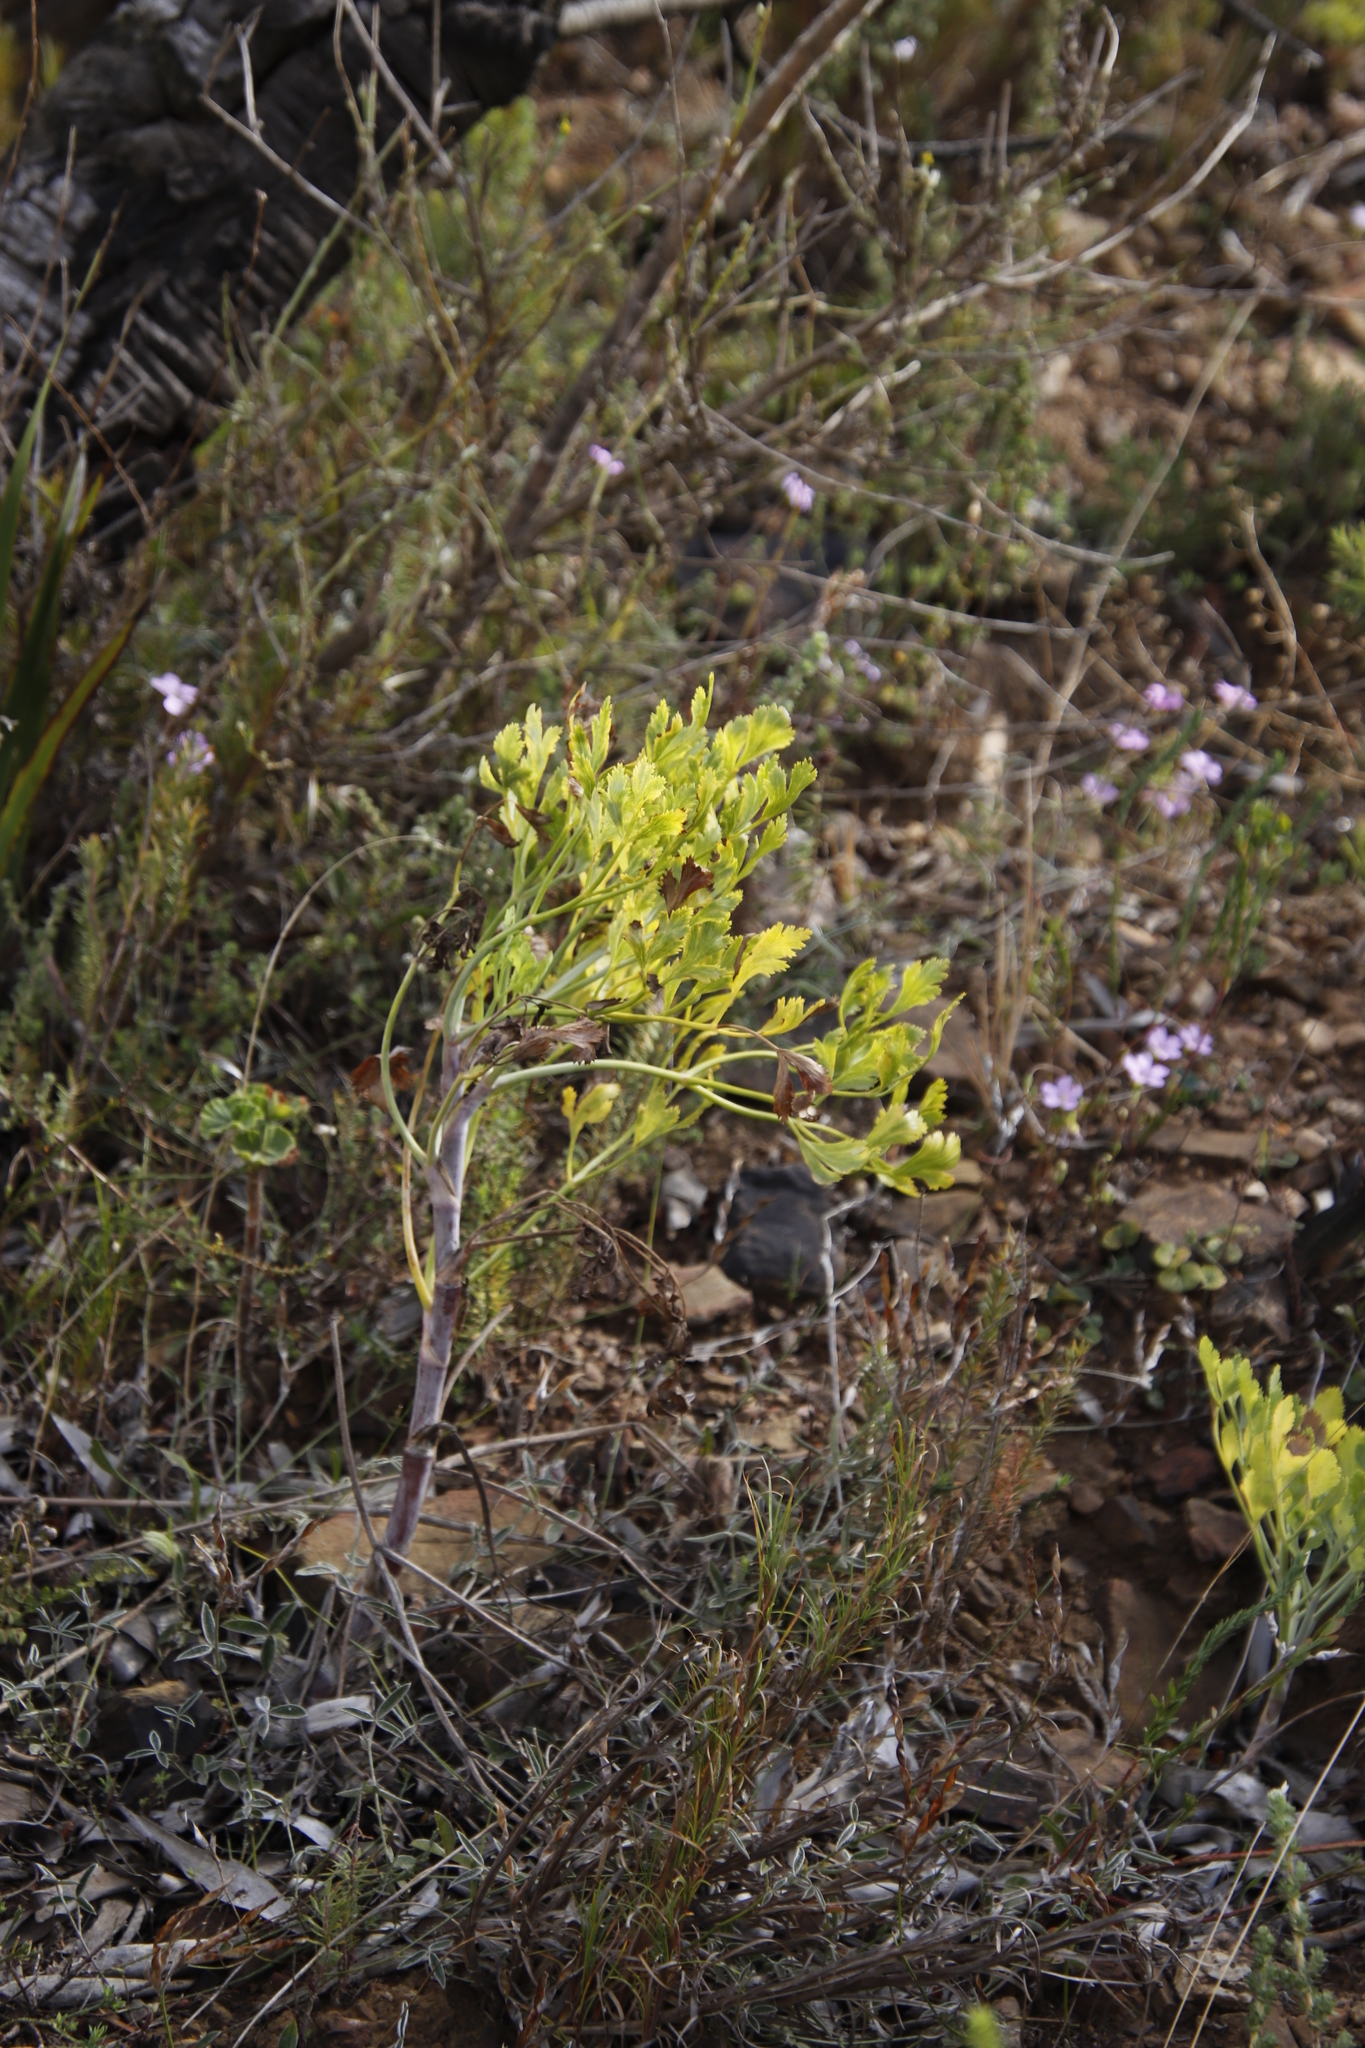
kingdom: Plantae
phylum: Tracheophyta
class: Magnoliopsida
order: Apiales
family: Apiaceae
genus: Notobubon
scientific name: Notobubon galbanum
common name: Blisterbush
